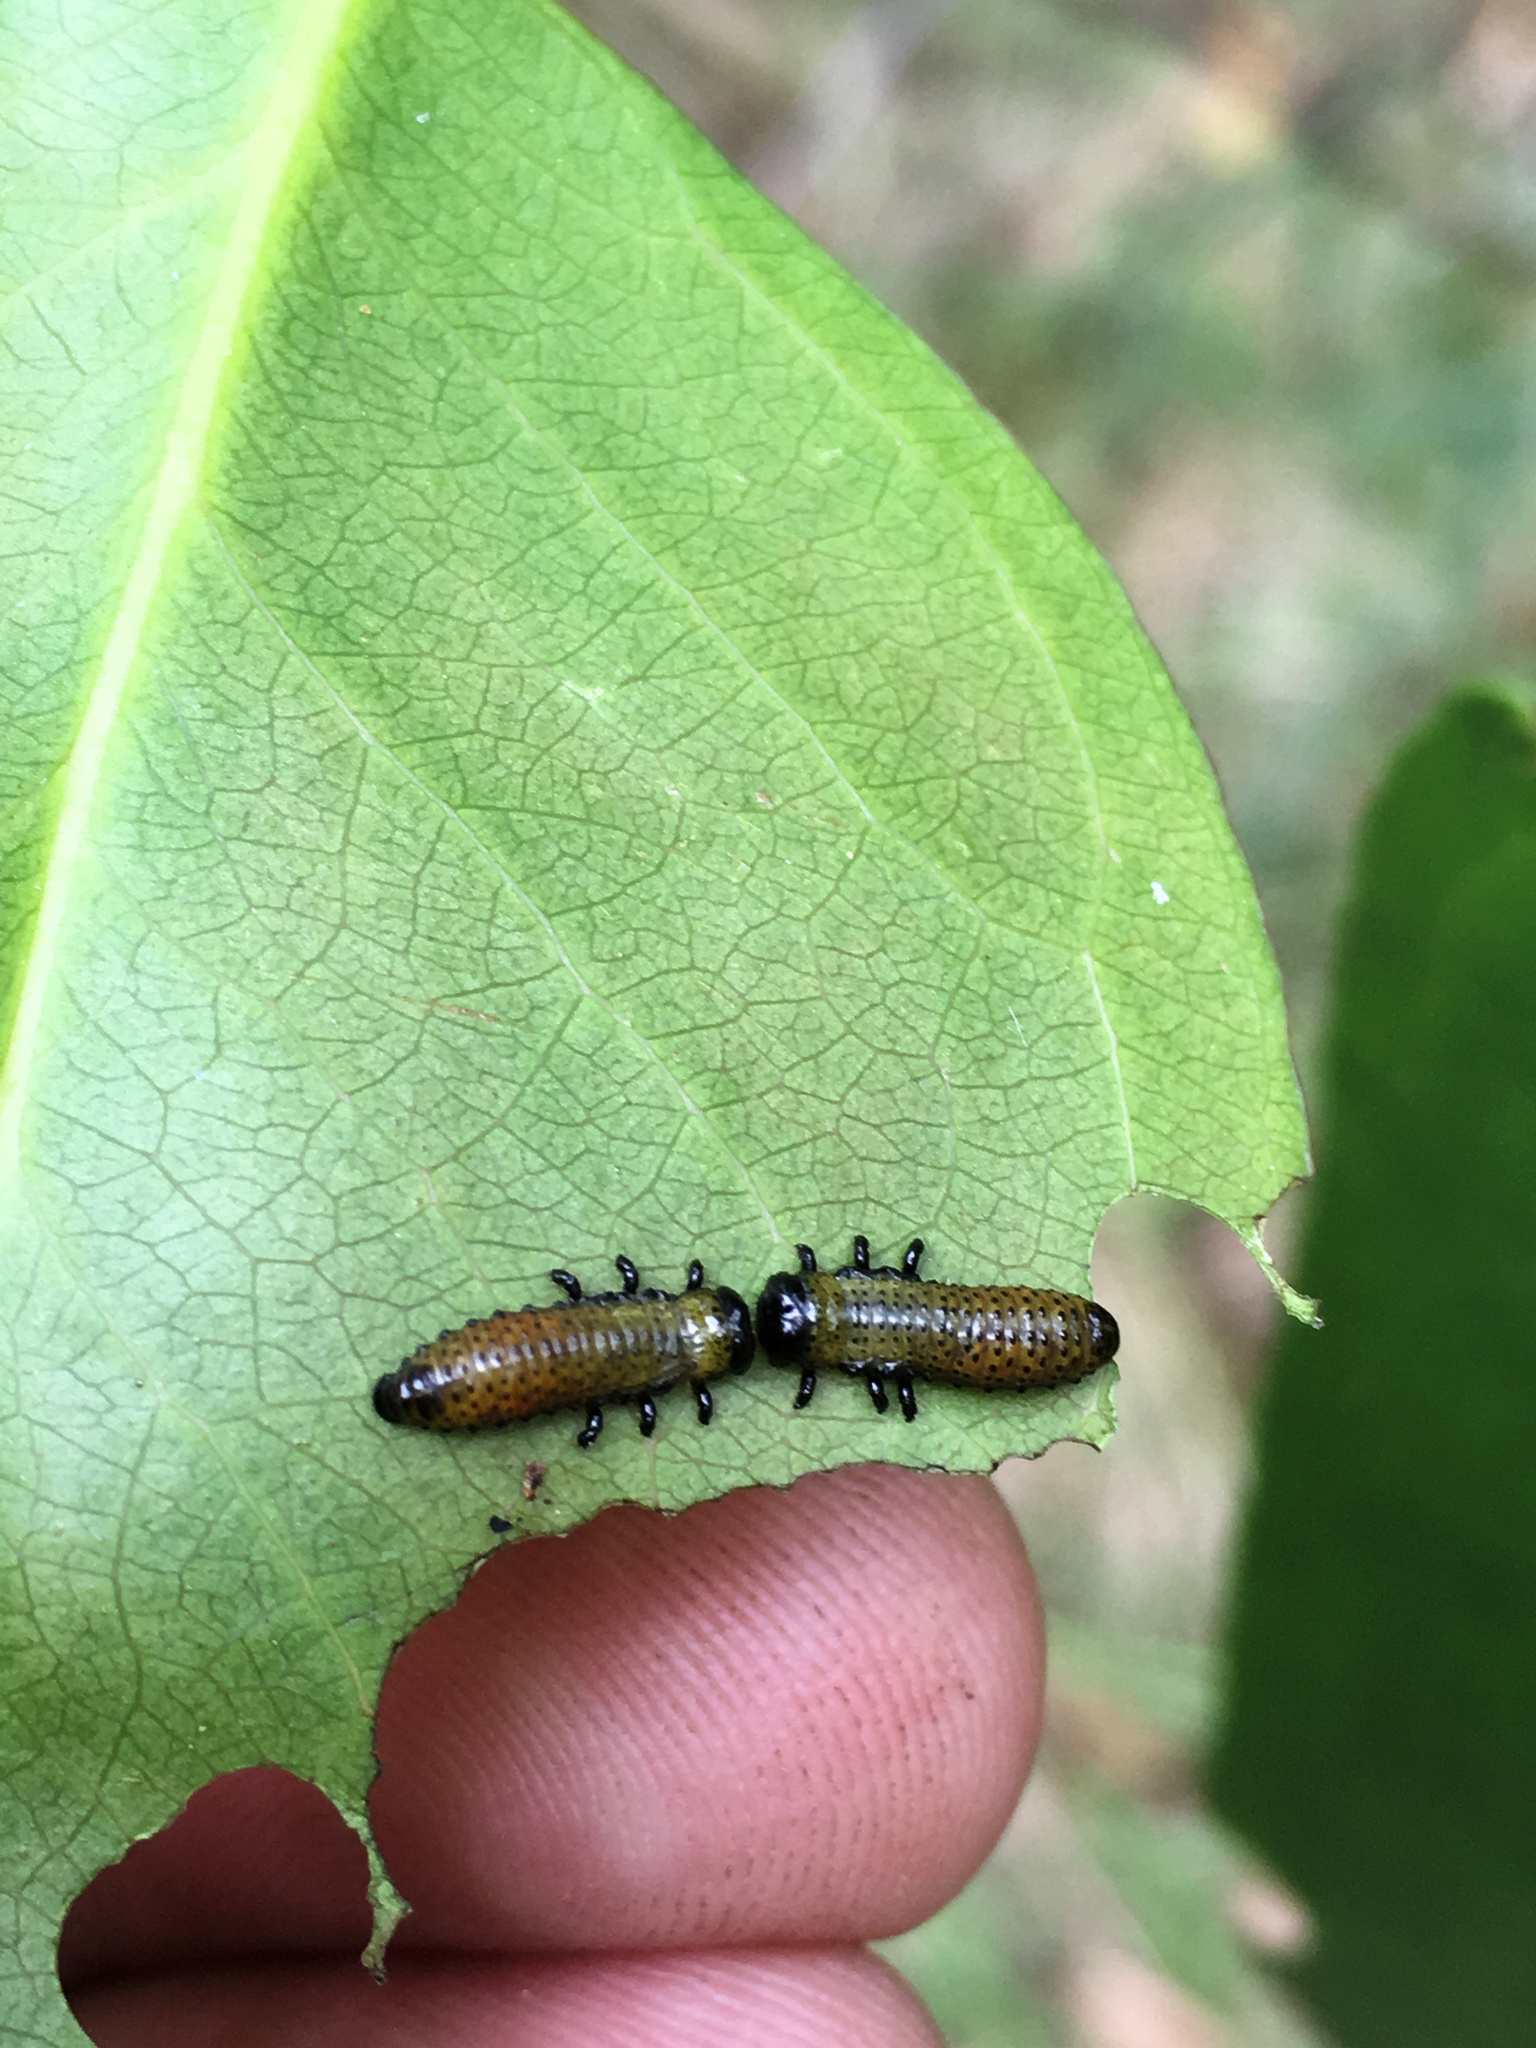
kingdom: Animalia
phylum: Arthropoda
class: Insecta
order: Coleoptera
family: Chrysomelidae
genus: Paropsis
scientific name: Paropsis charybdis
